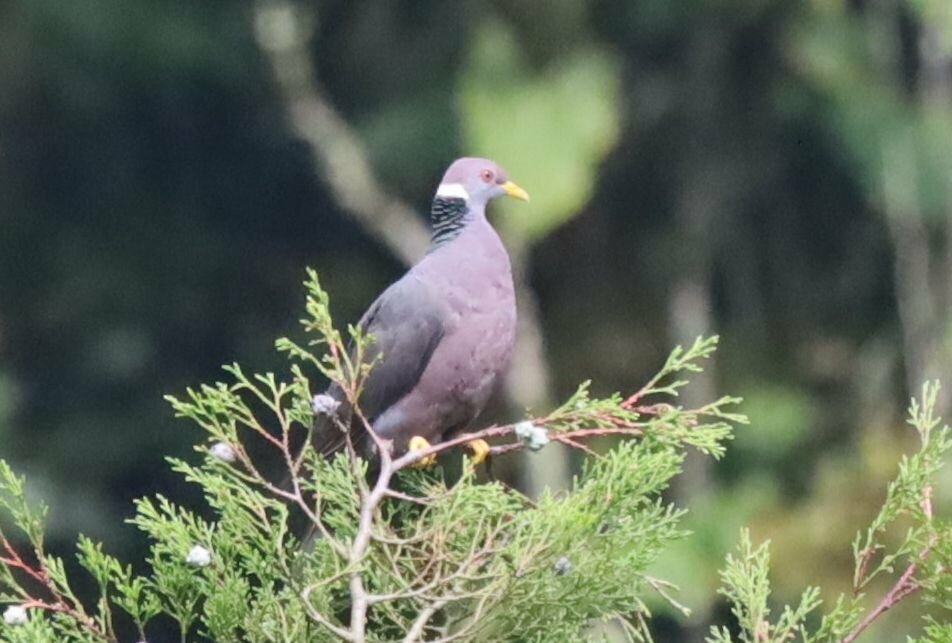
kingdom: Animalia
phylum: Chordata
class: Aves
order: Columbiformes
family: Columbidae
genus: Patagioenas
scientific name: Patagioenas fasciata
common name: Band-tailed pigeon
